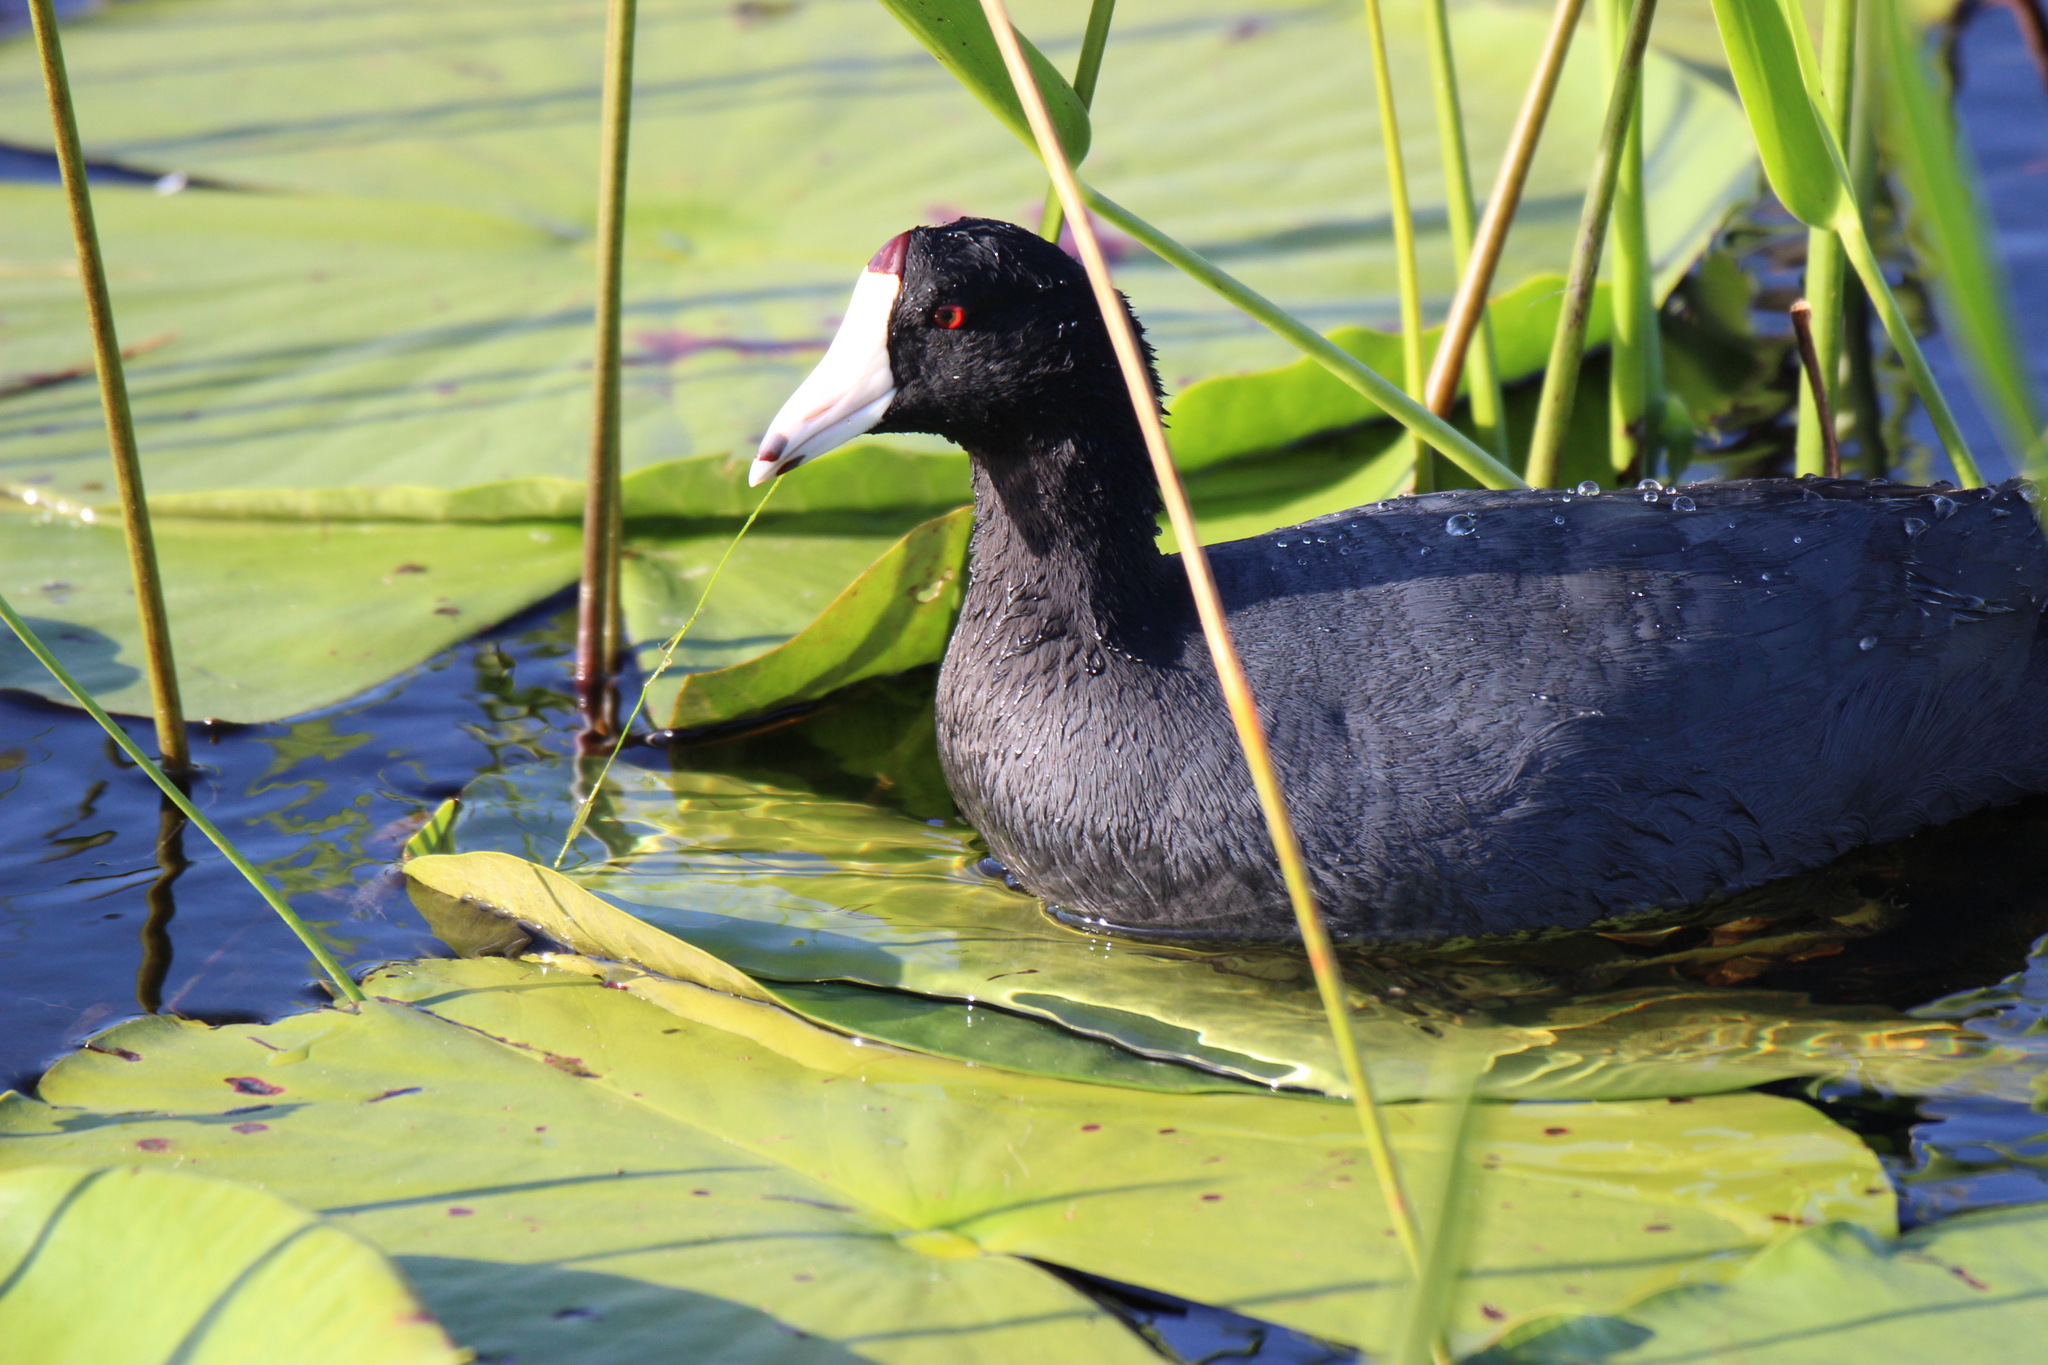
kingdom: Animalia
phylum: Chordata
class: Aves
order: Gruiformes
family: Rallidae
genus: Fulica
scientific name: Fulica americana
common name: American coot
